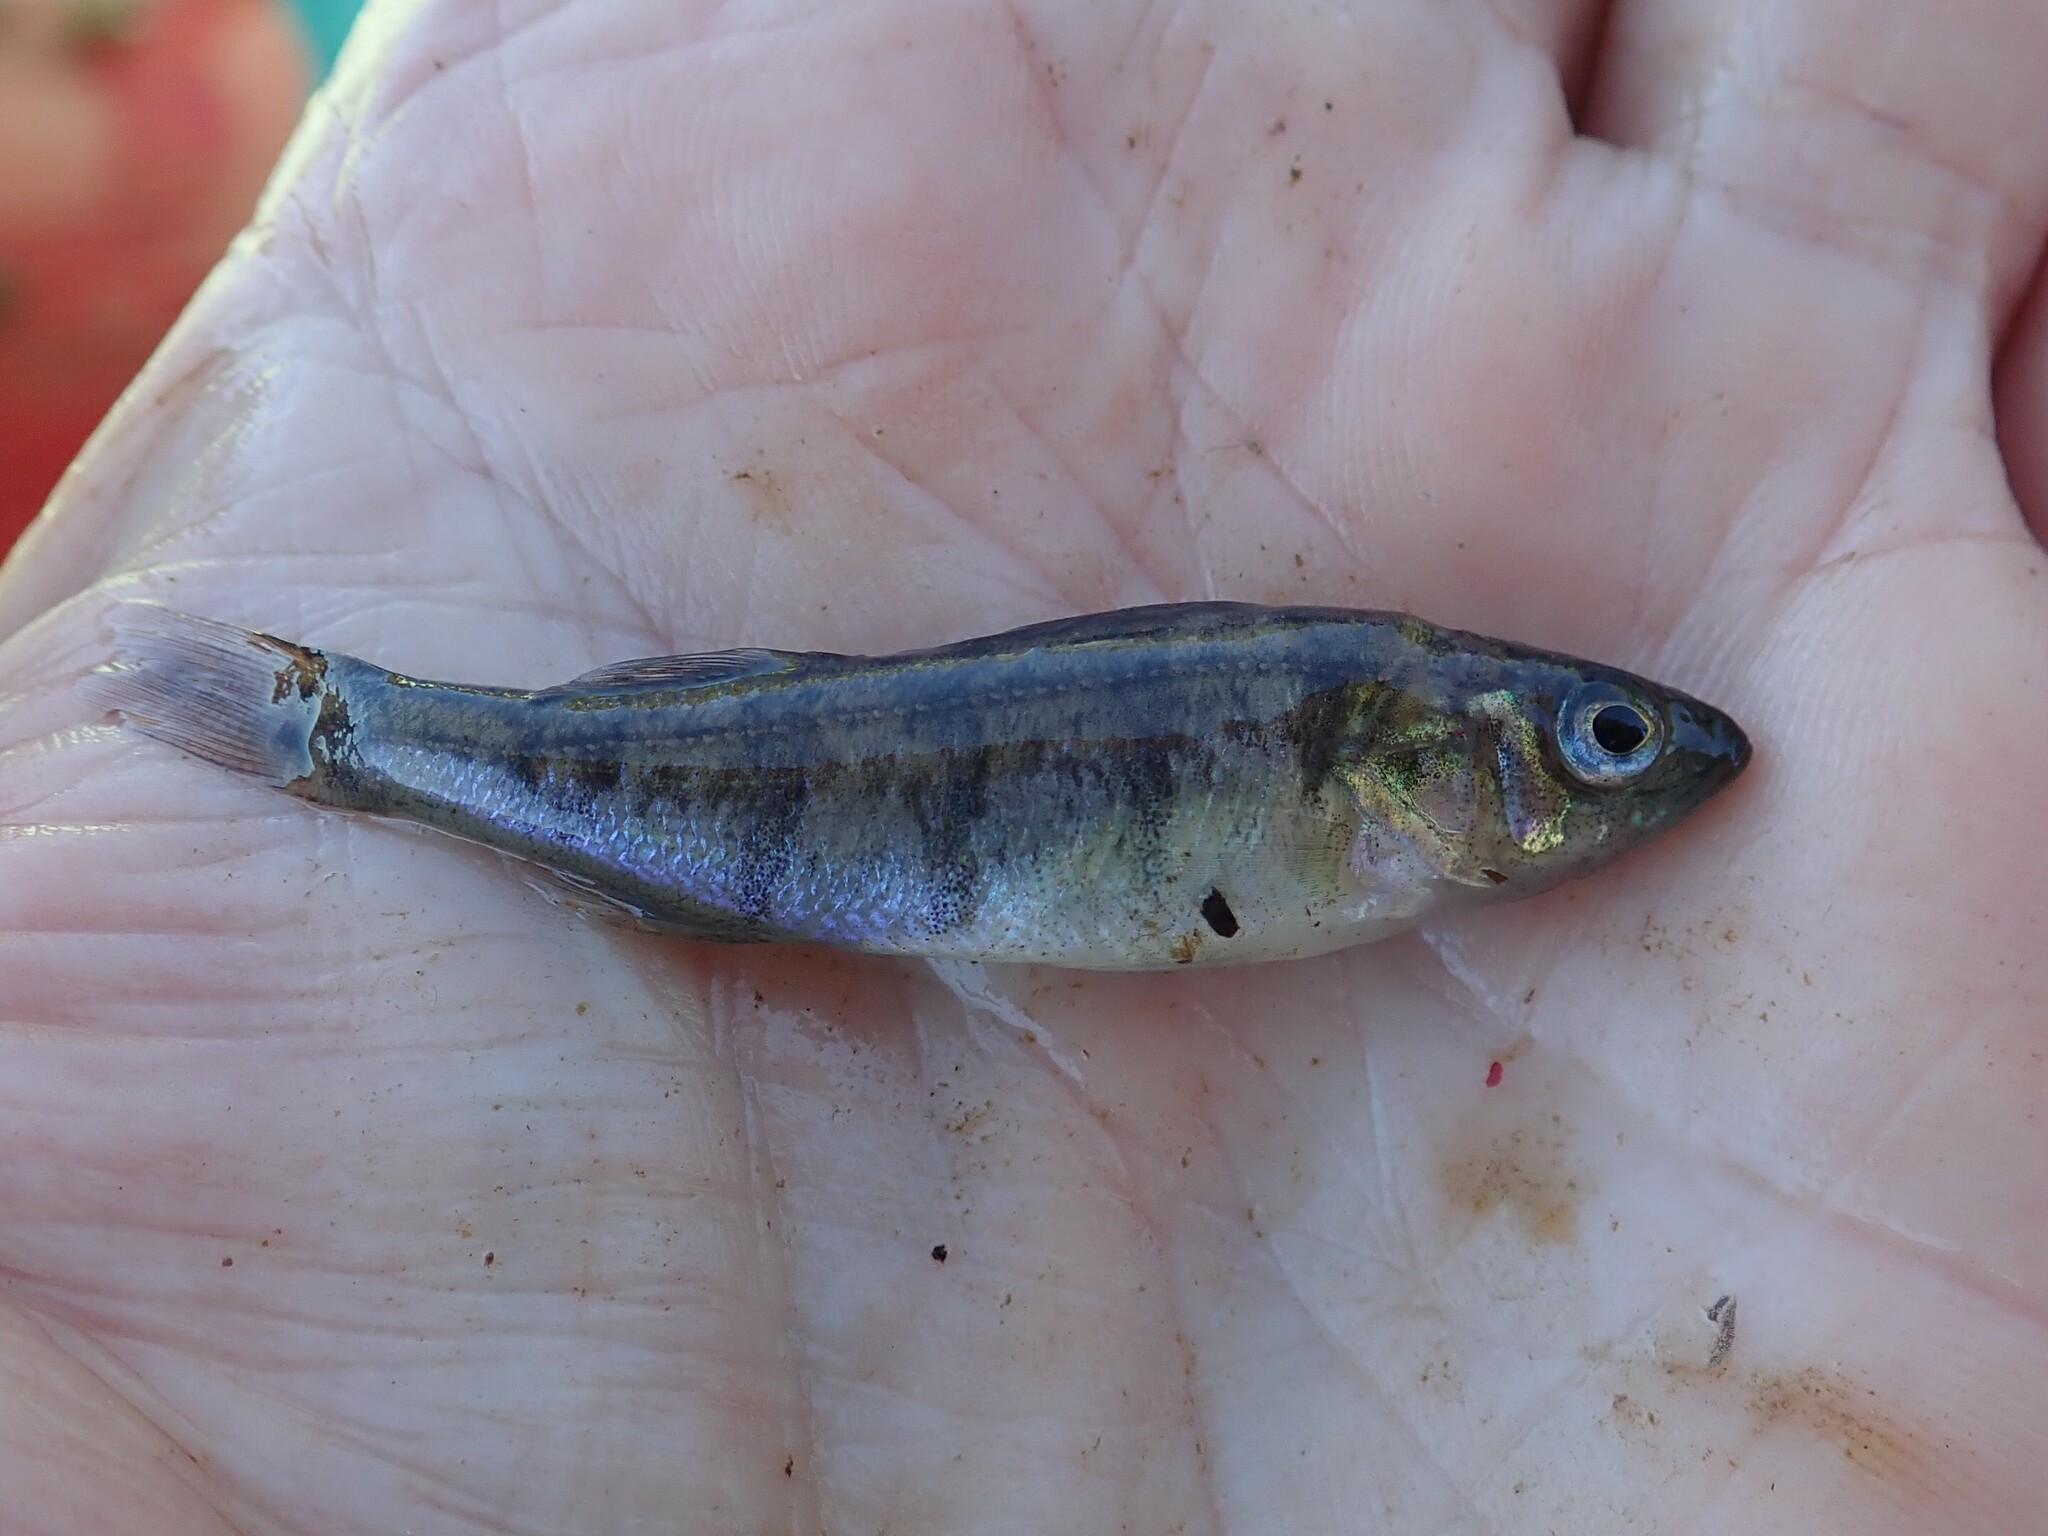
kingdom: Animalia
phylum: Chordata
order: Perciformes
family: Percidae
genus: Perca
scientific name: Perca flavescens
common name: Yellow perch
